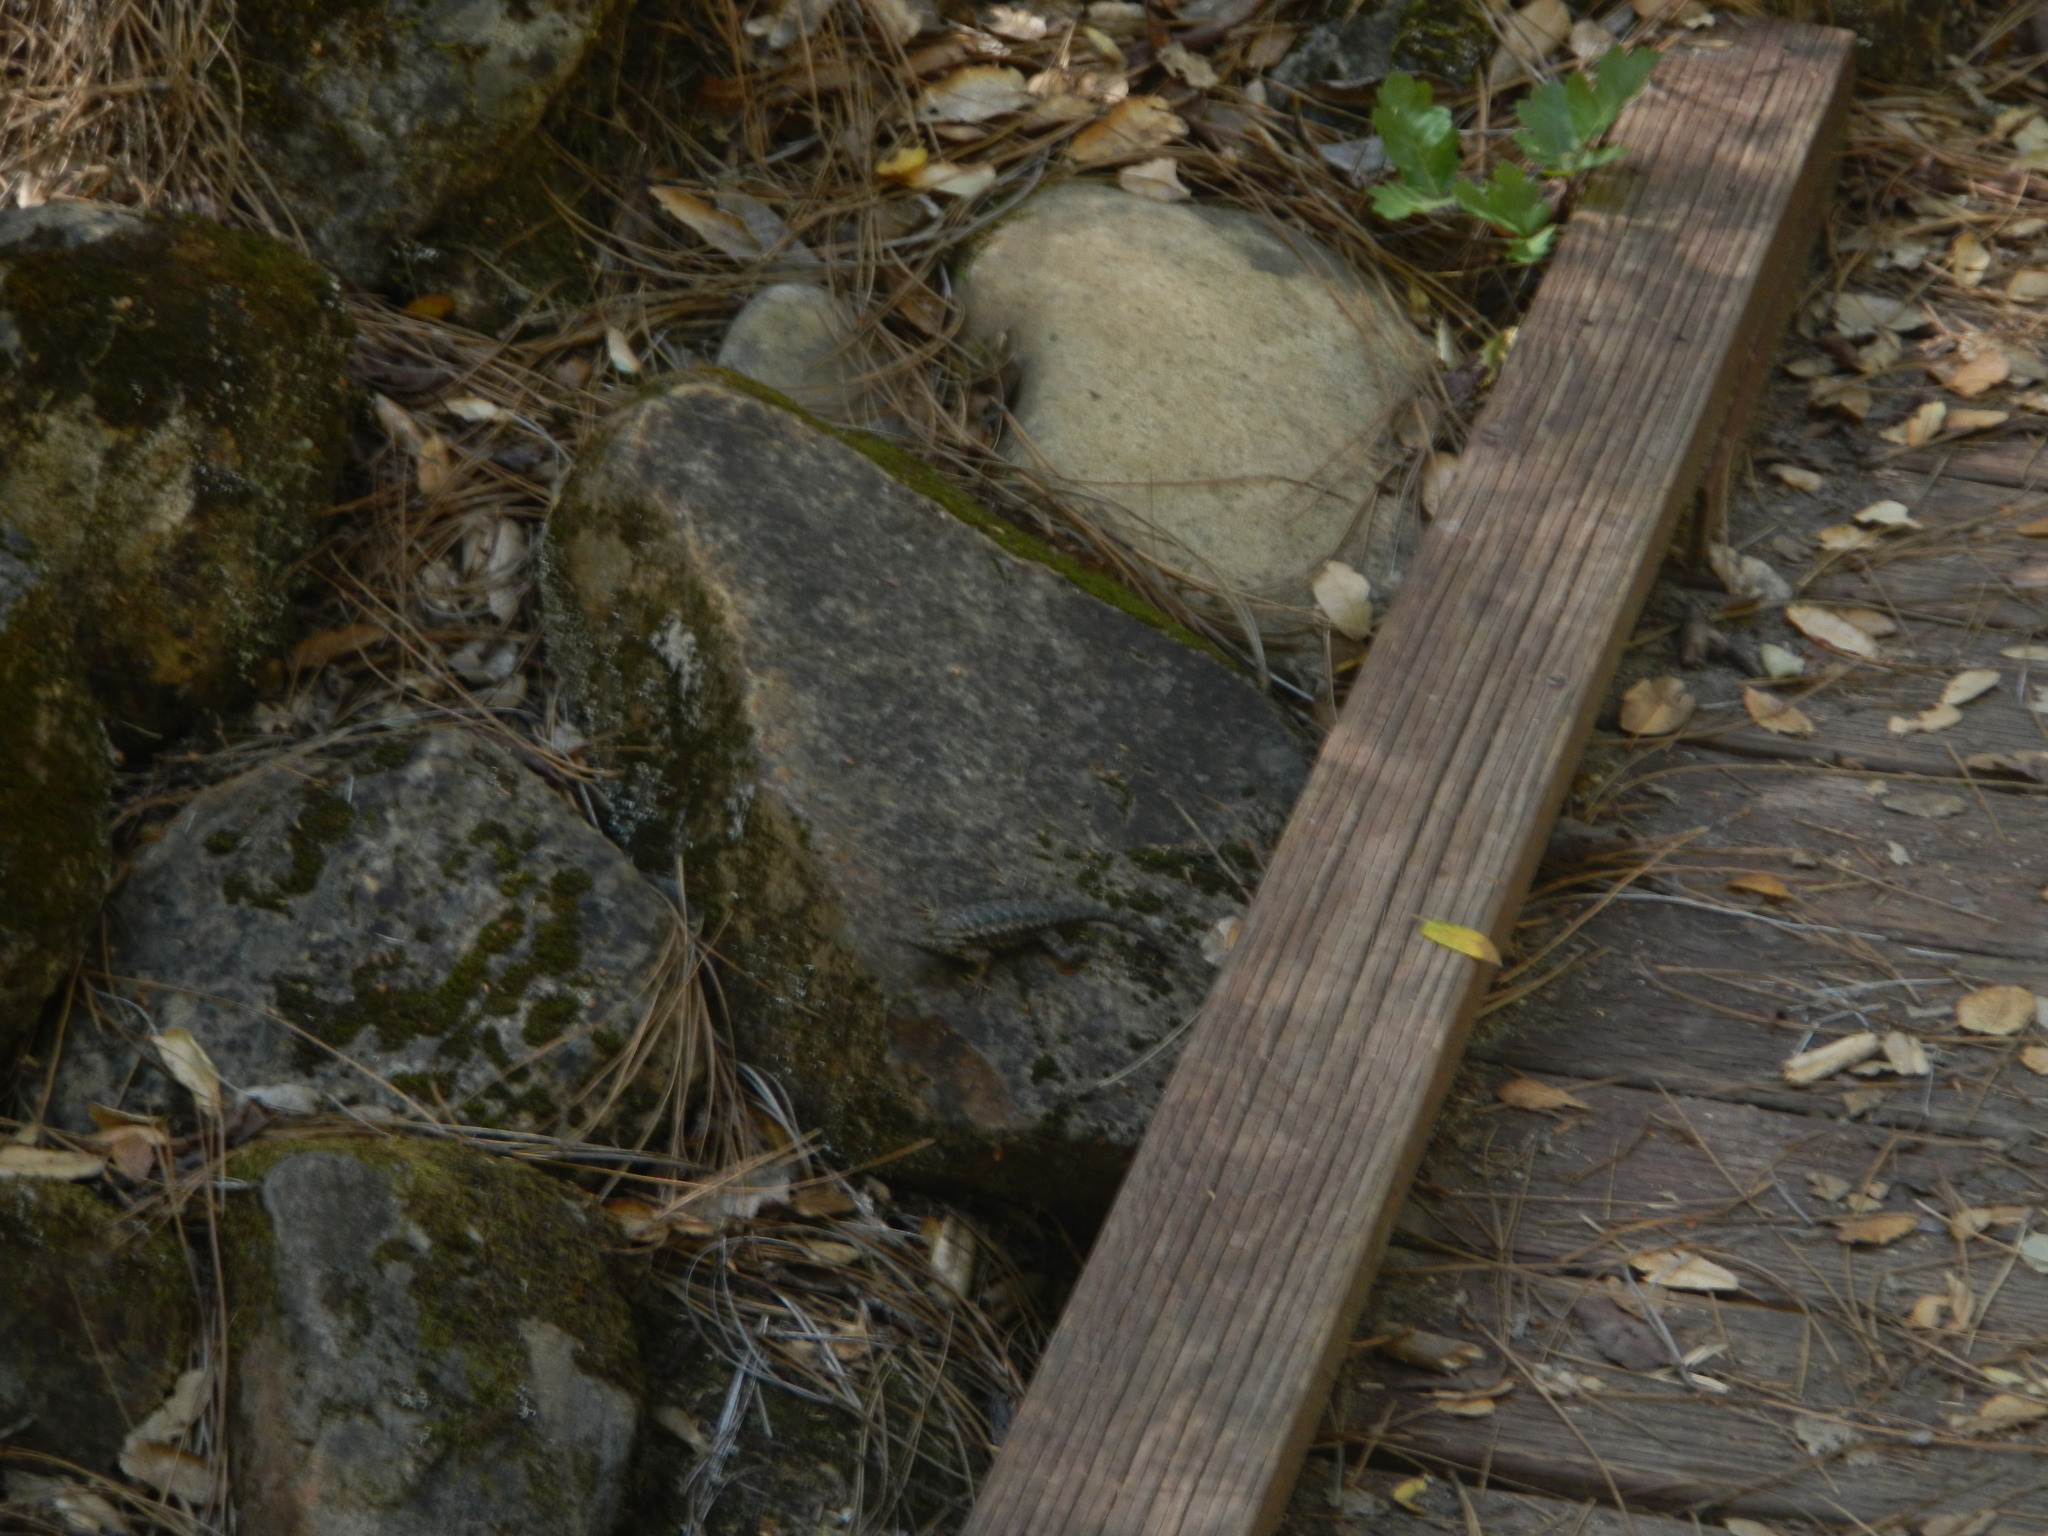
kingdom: Animalia
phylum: Chordata
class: Squamata
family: Phrynosomatidae
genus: Sceloporus
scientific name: Sceloporus occidentalis
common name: Western fence lizard
